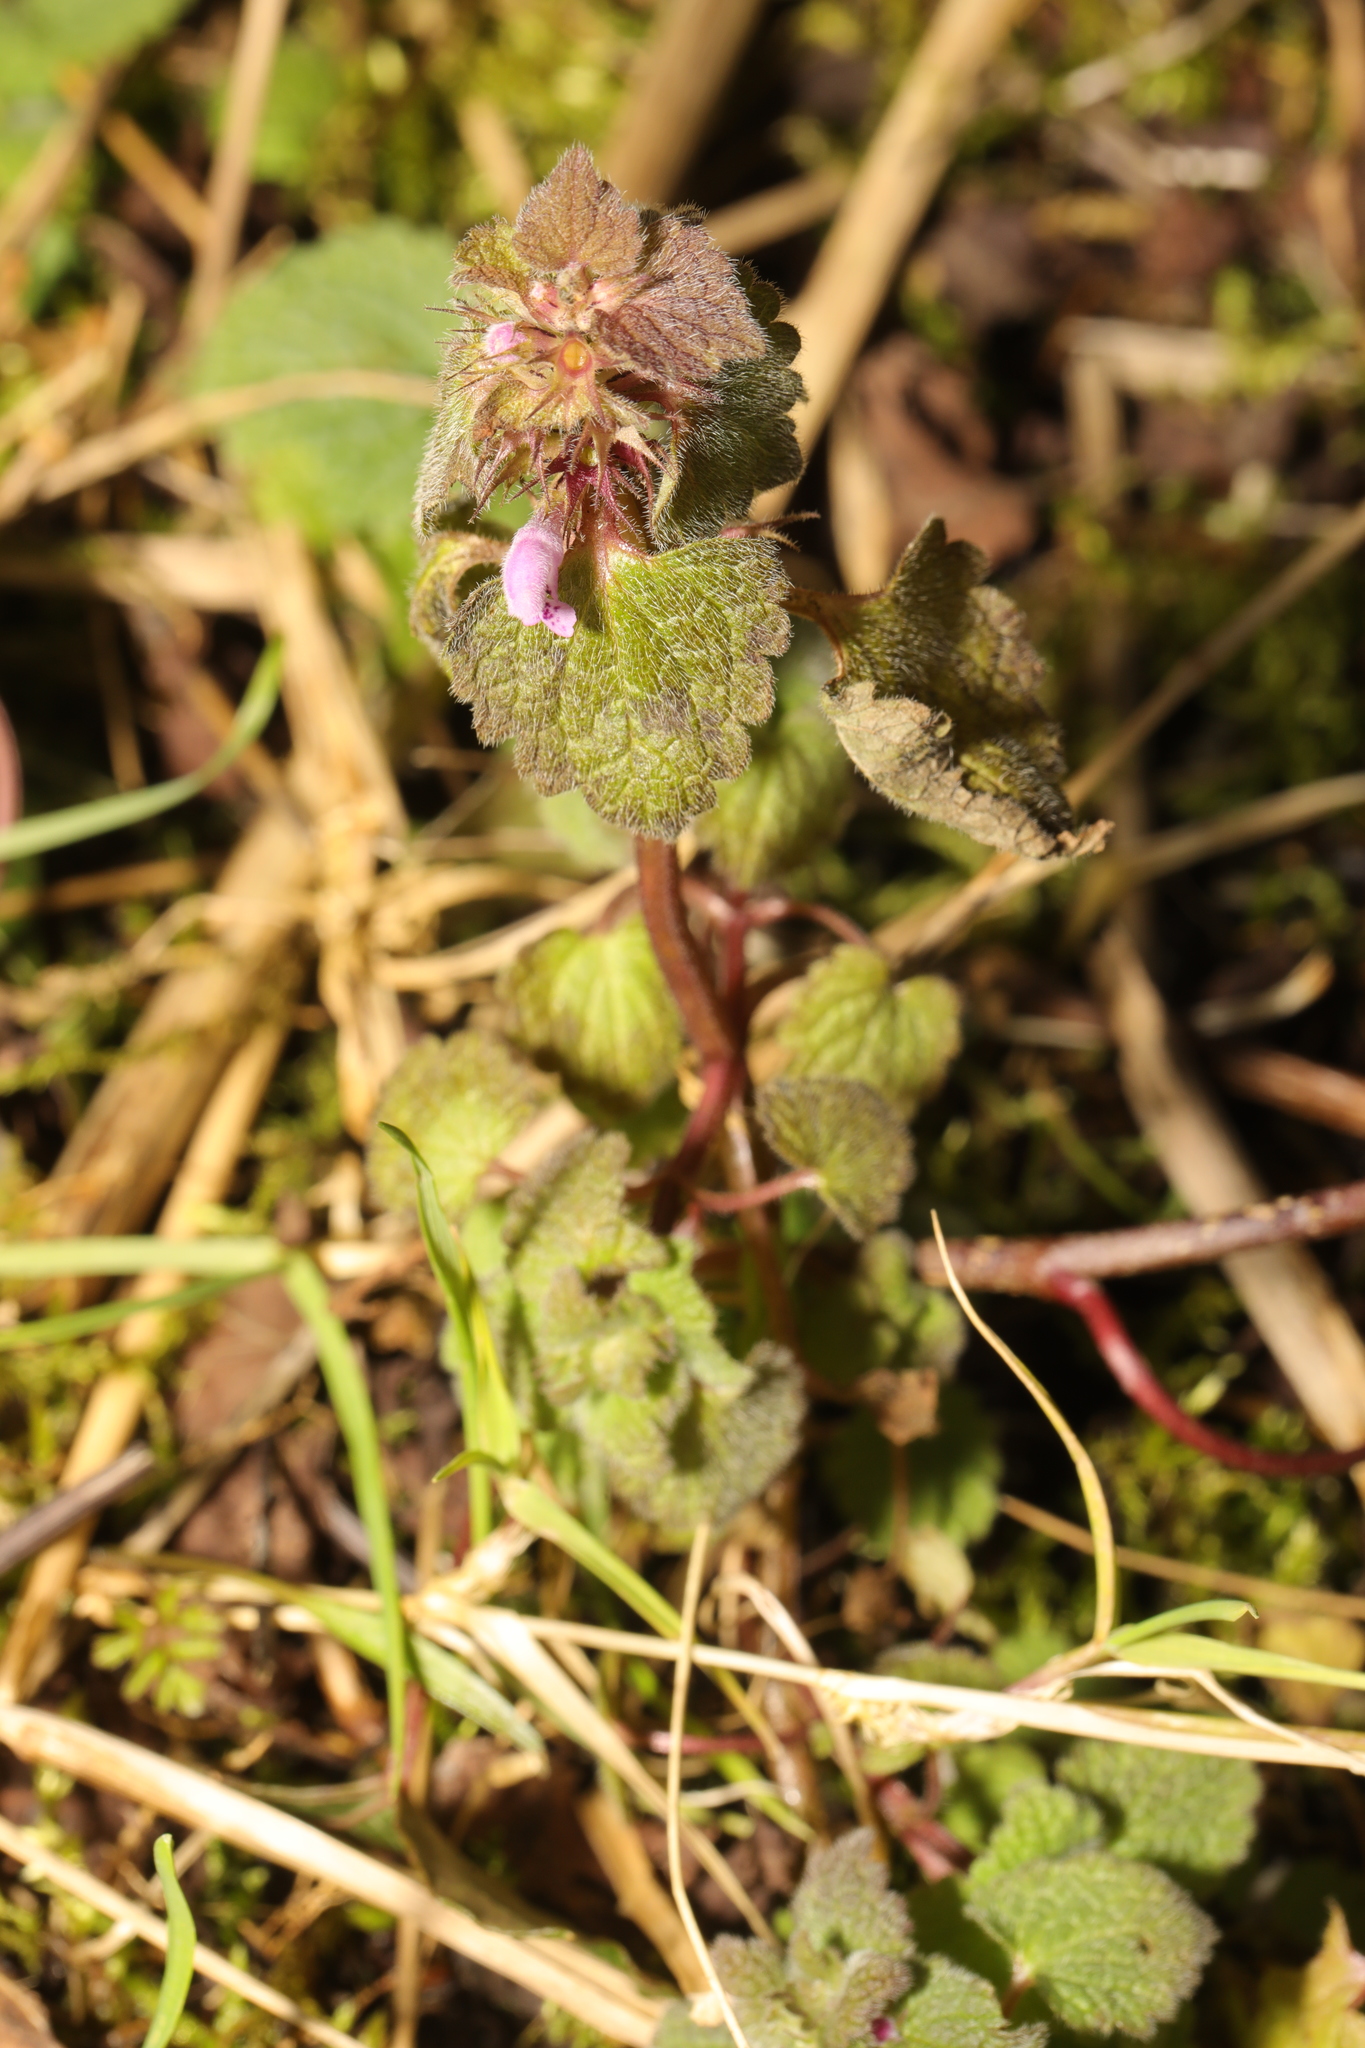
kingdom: Plantae
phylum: Tracheophyta
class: Magnoliopsida
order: Lamiales
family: Lamiaceae
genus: Lamium
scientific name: Lamium purpureum
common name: Red dead-nettle
